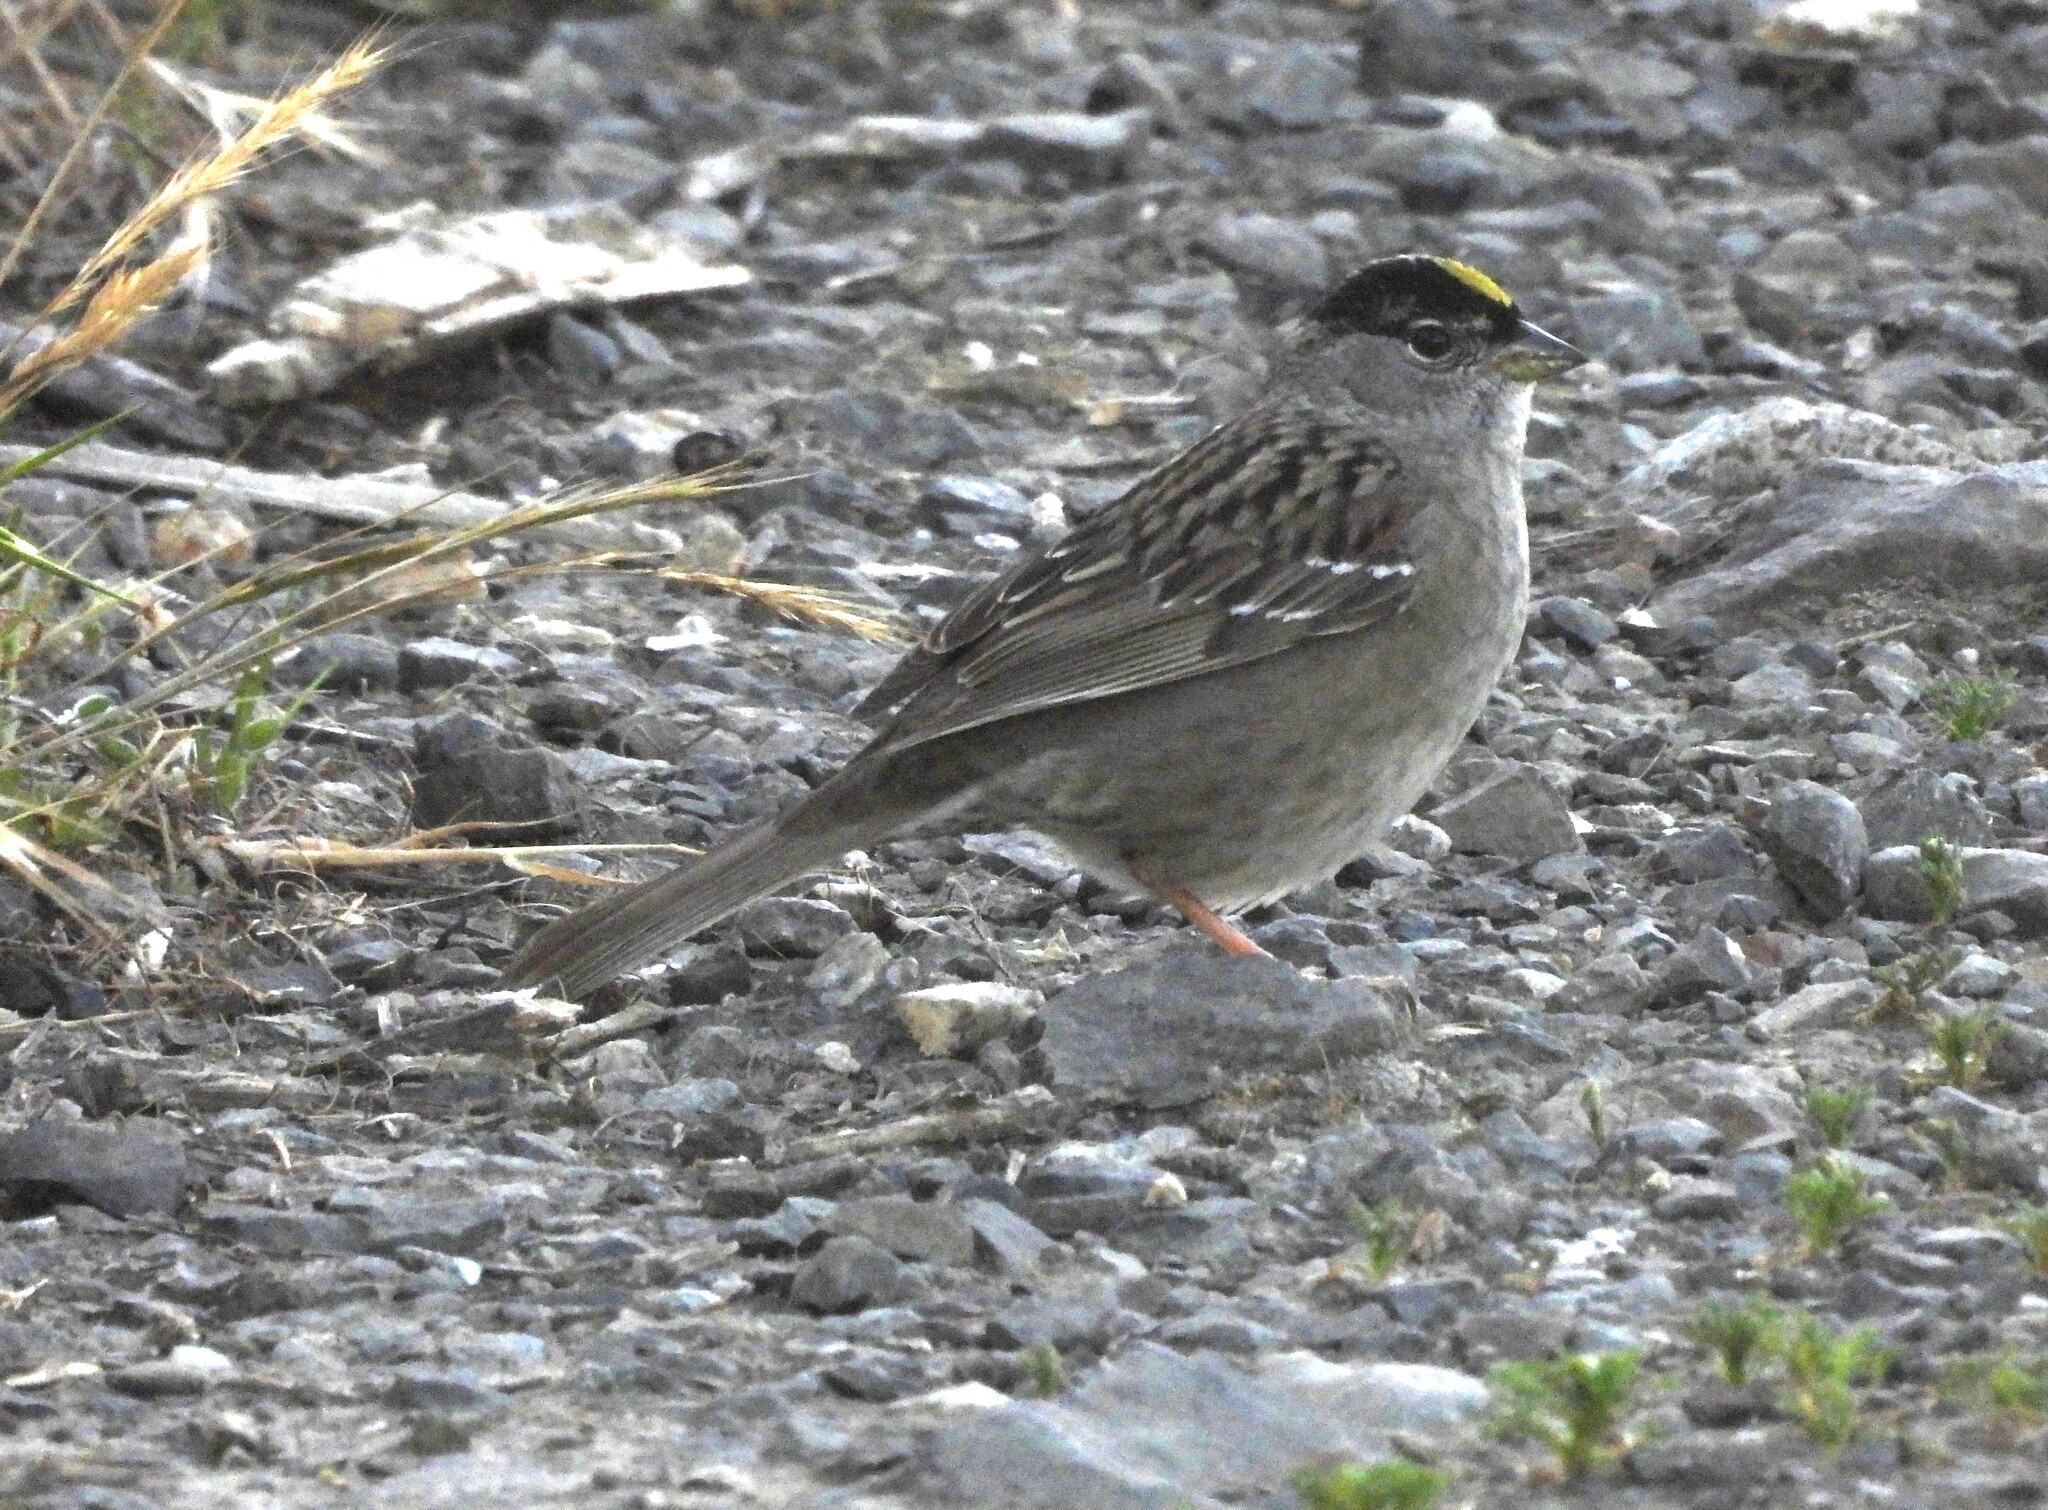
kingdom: Animalia
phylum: Chordata
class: Aves
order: Passeriformes
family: Passerellidae
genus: Zonotrichia
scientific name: Zonotrichia atricapilla
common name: Golden-crowned sparrow
